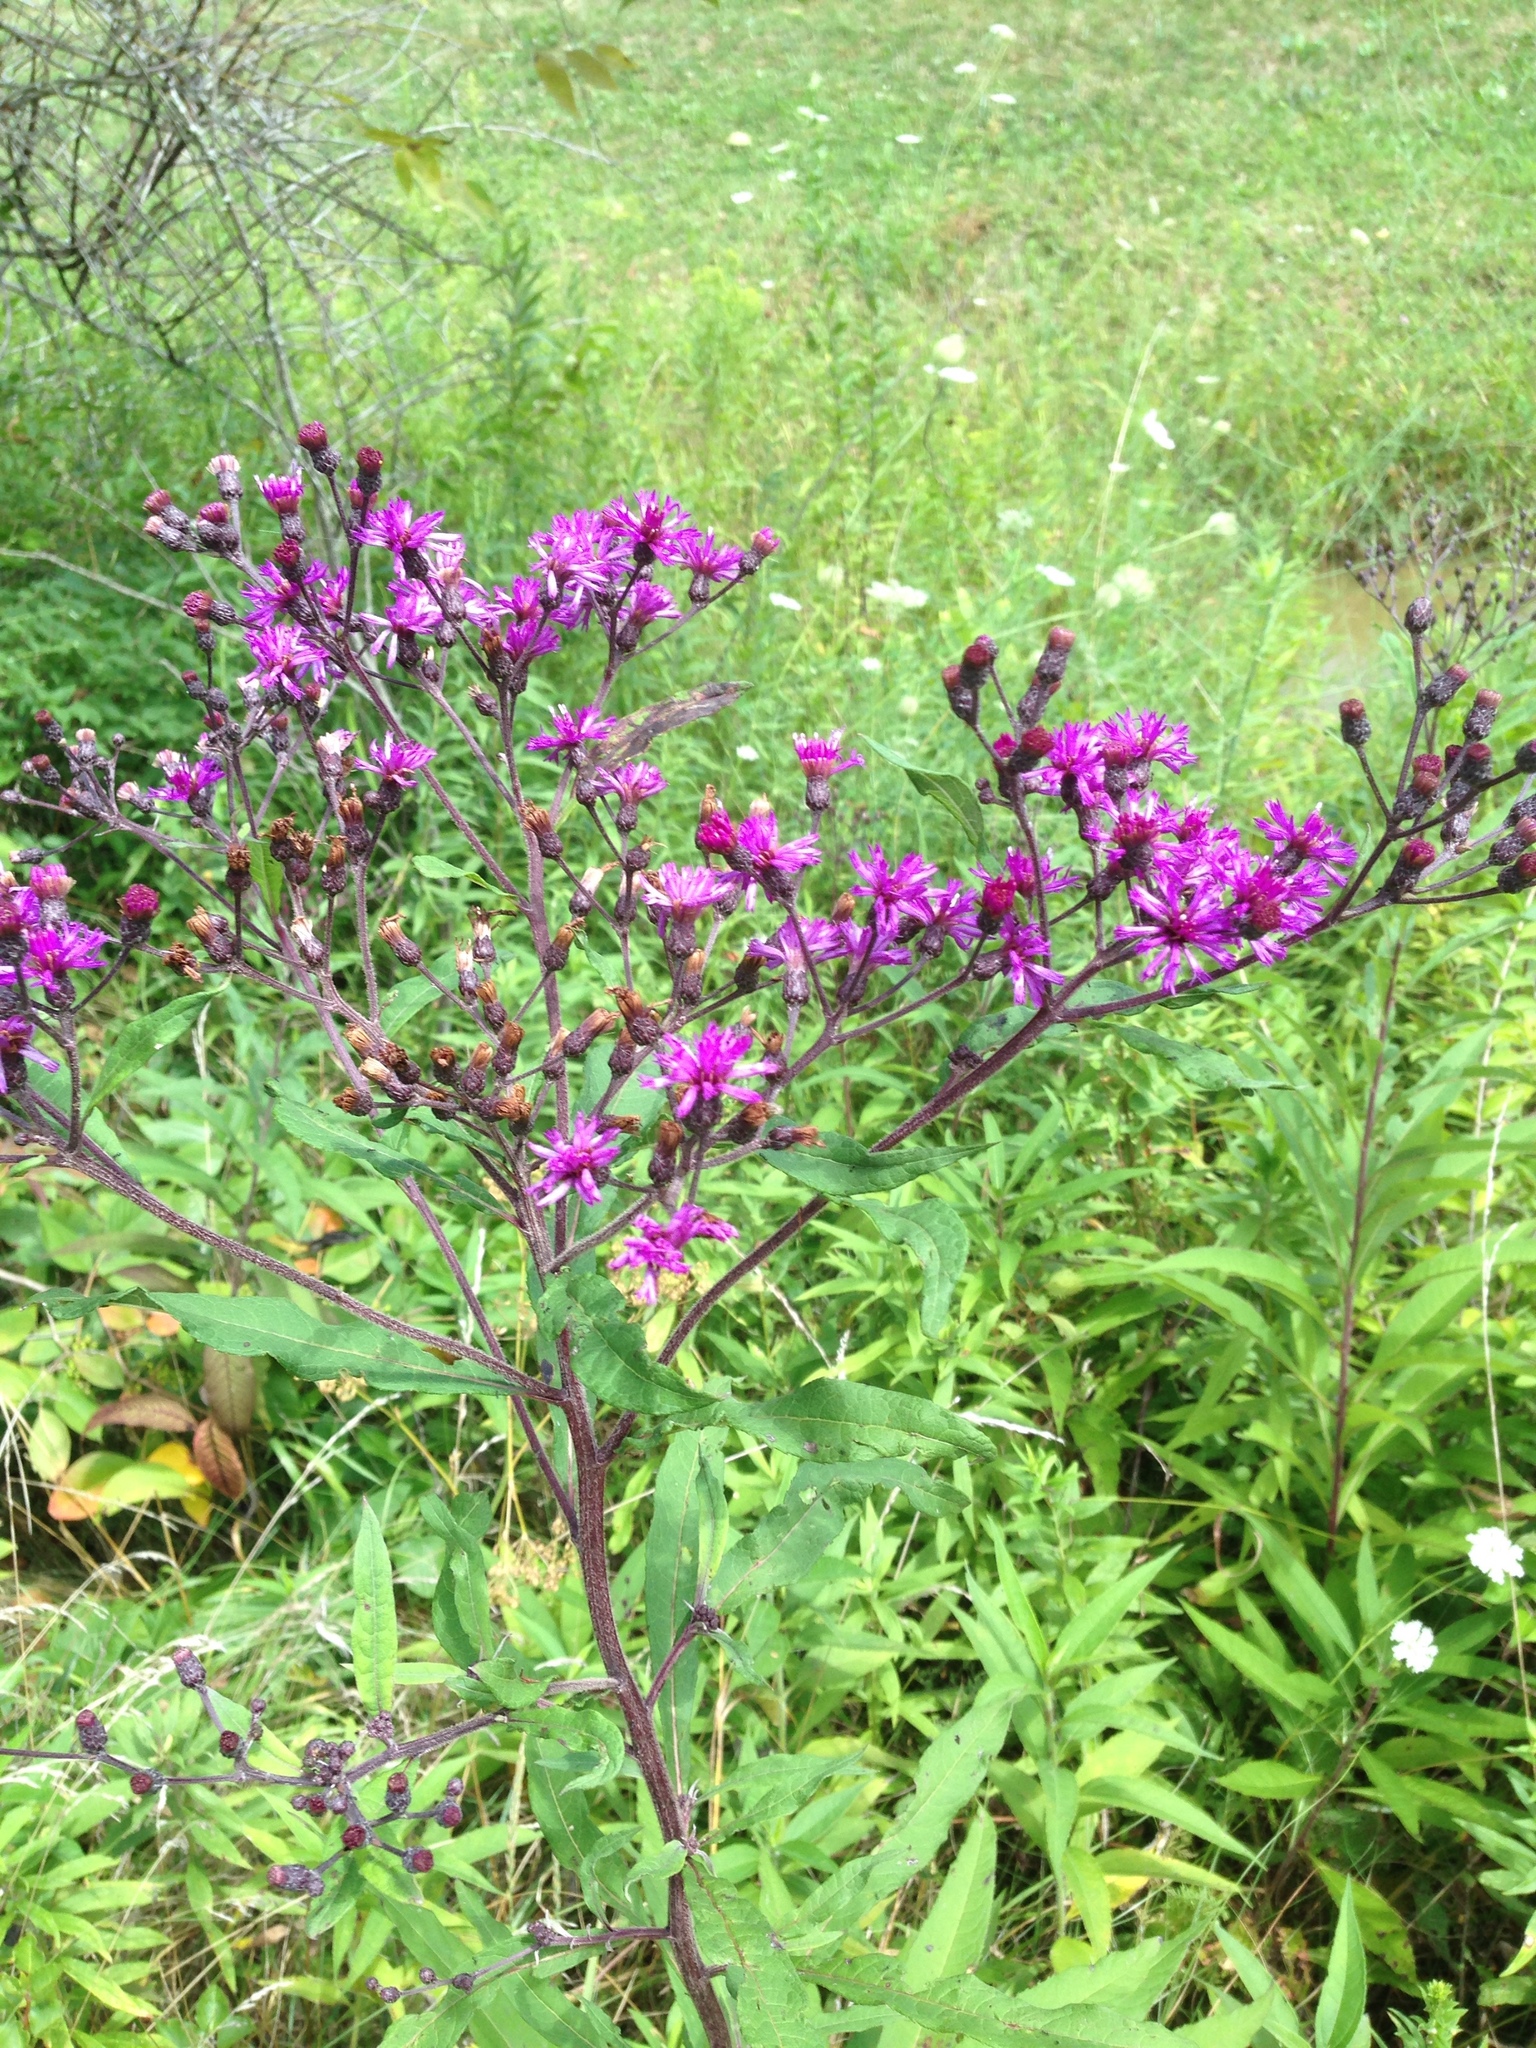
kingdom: Plantae
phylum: Tracheophyta
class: Magnoliopsida
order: Asterales
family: Asteraceae
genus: Vernonia
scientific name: Vernonia gigantea
